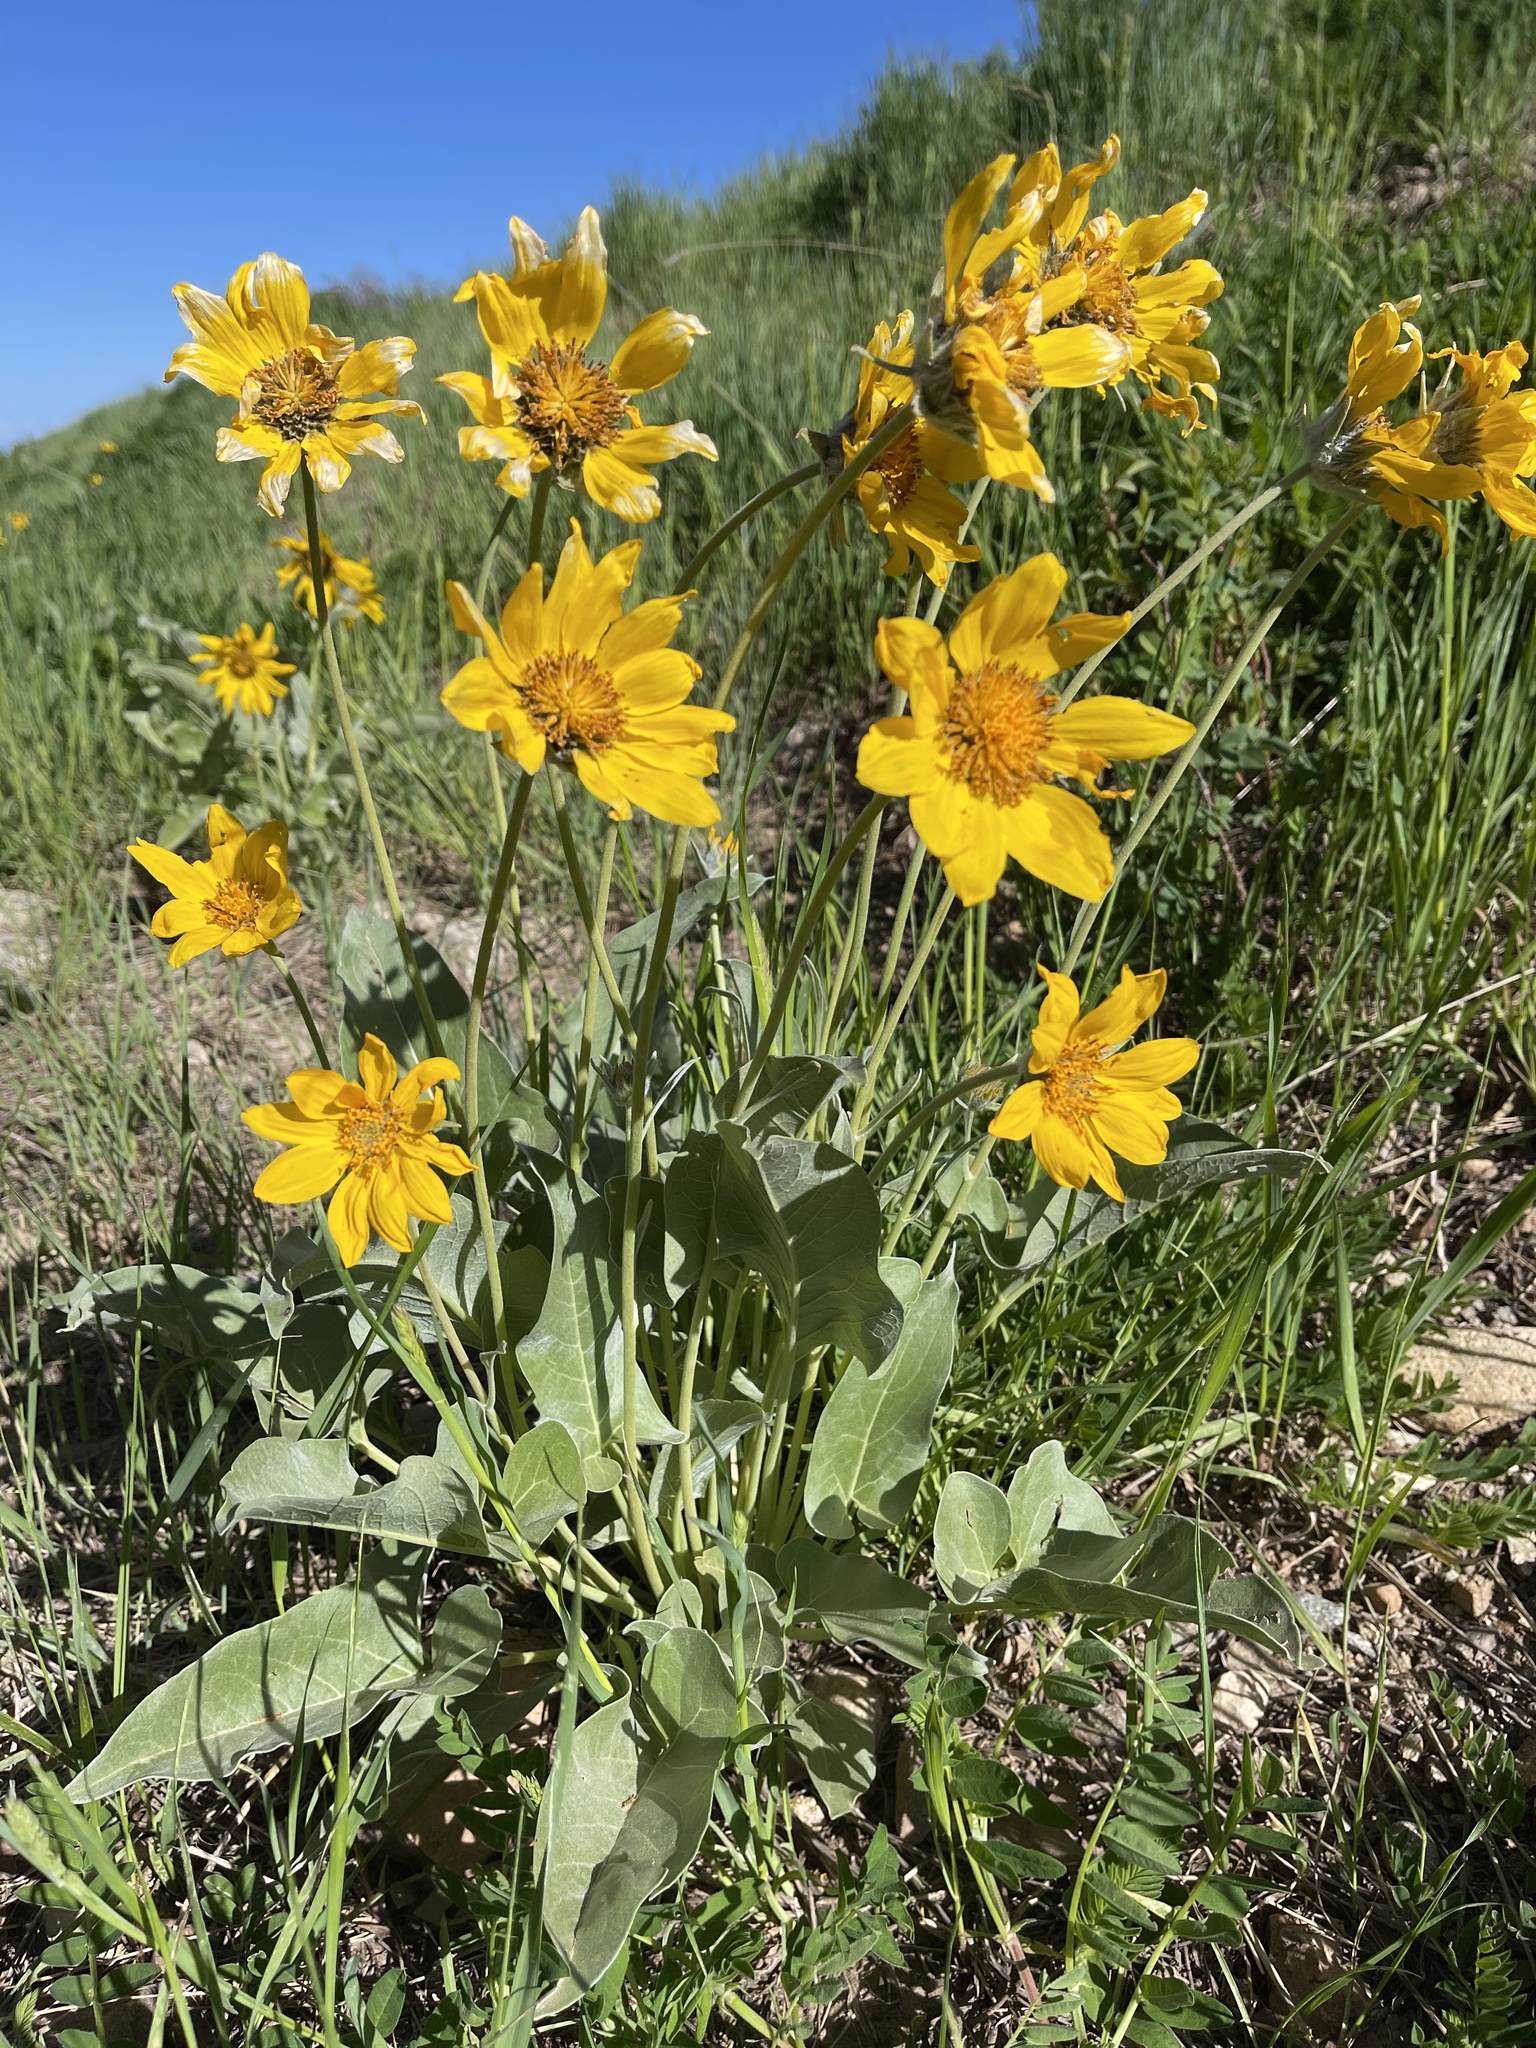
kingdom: Plantae
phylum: Tracheophyta
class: Magnoliopsida
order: Asterales
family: Asteraceae
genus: Wyethia
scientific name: Wyethia sagittata
